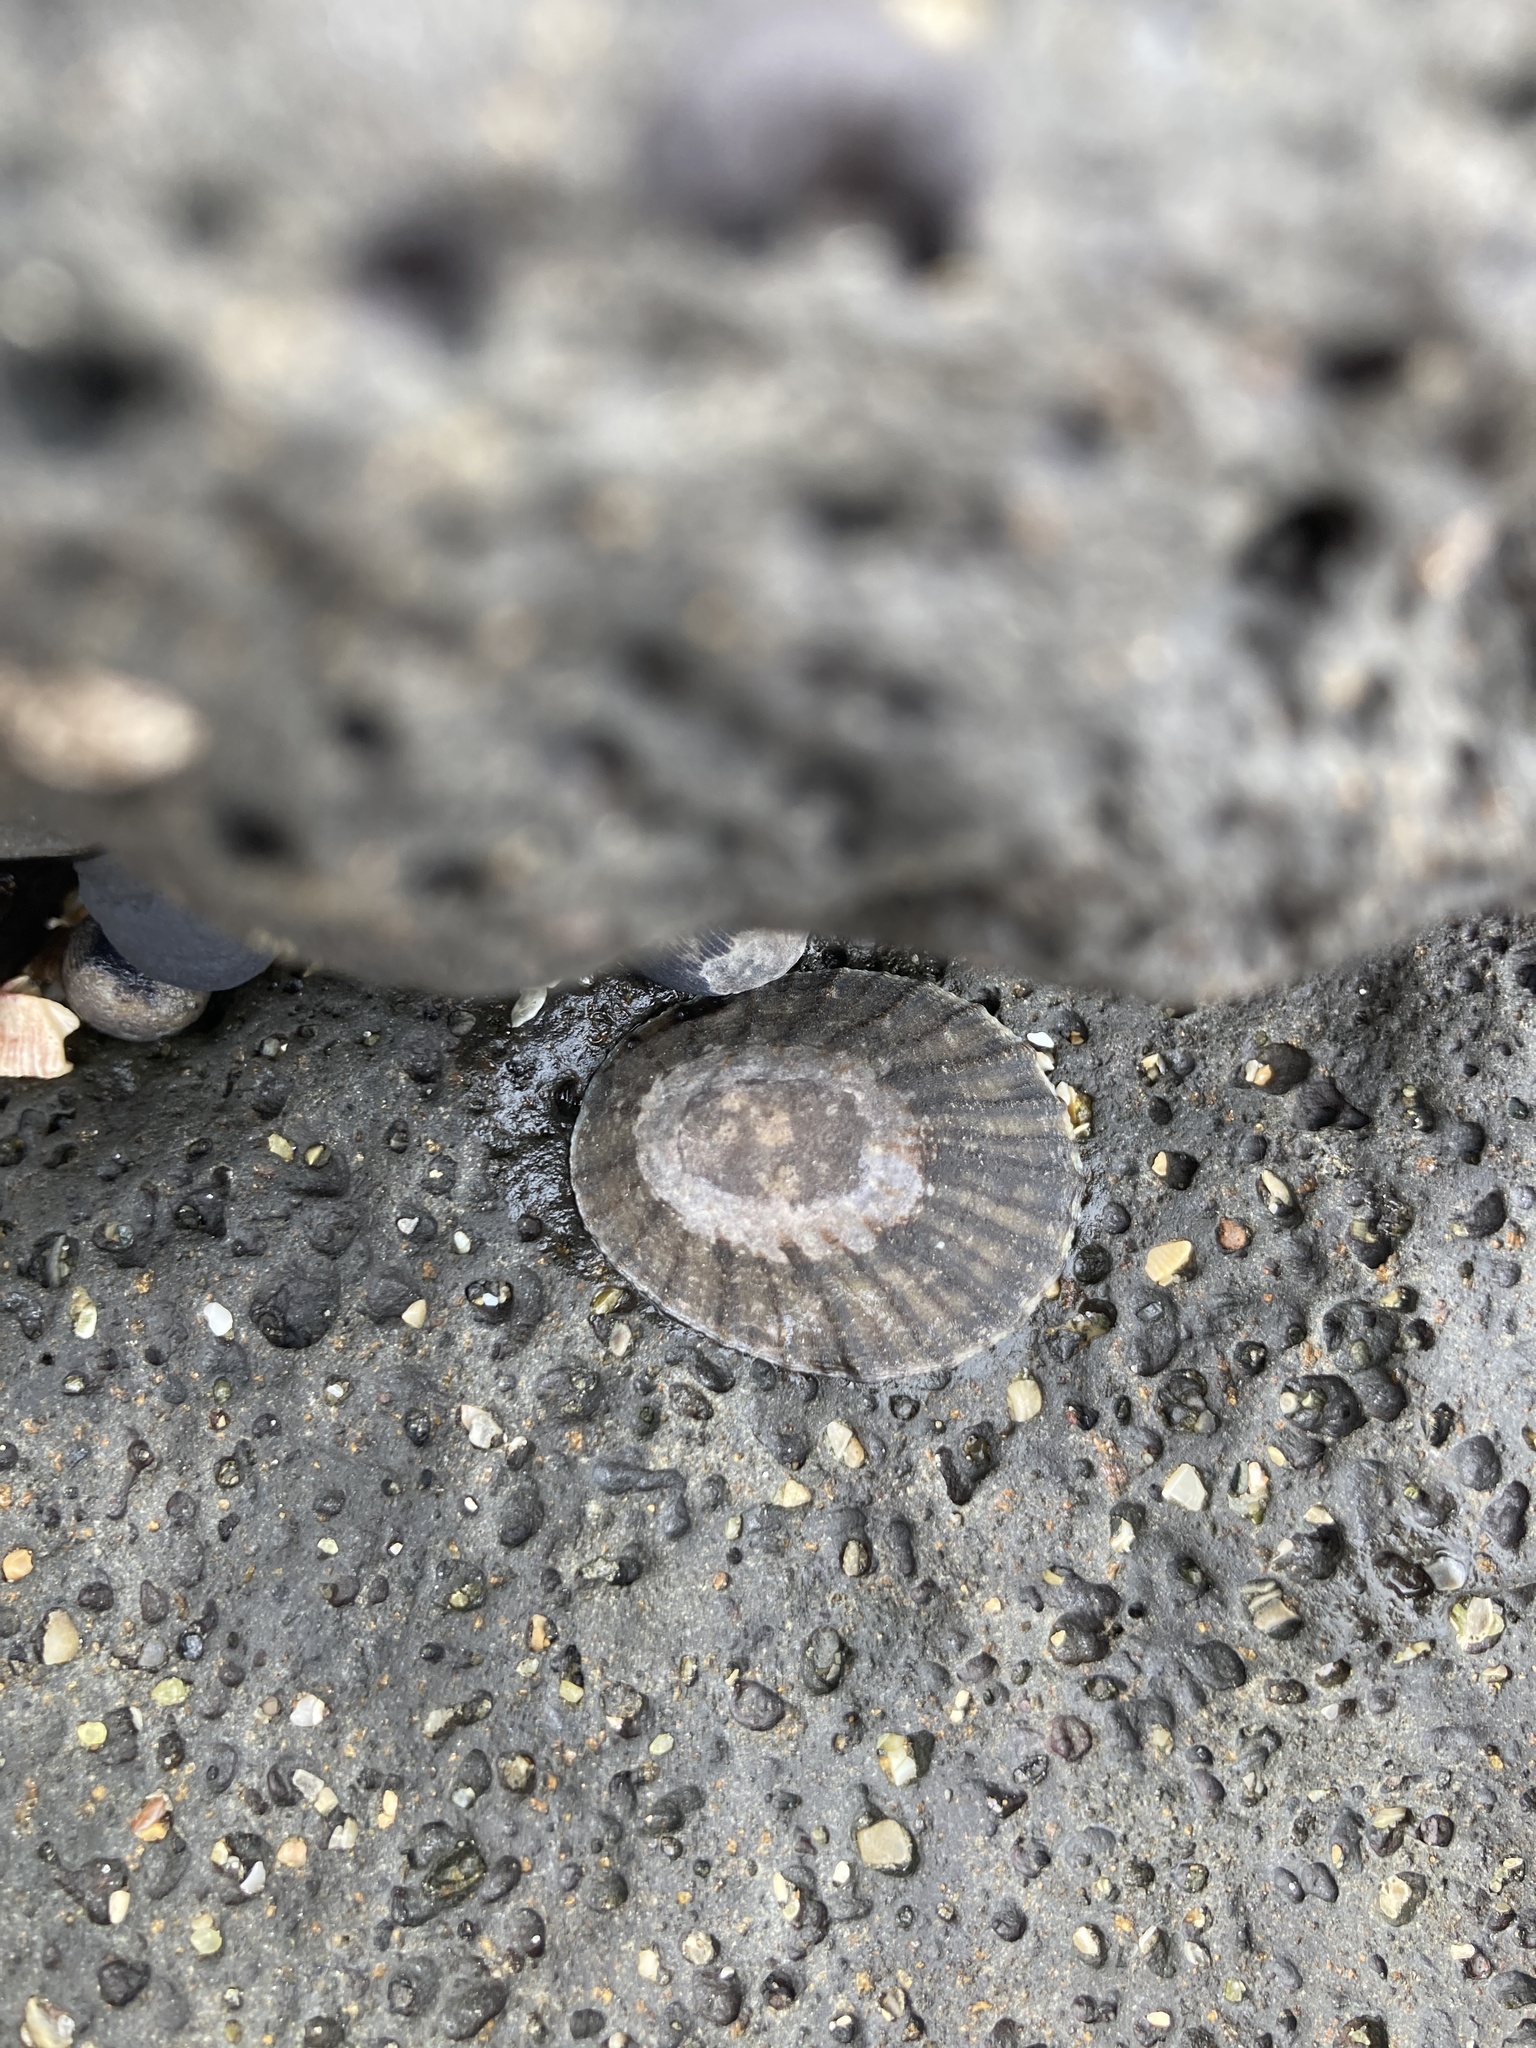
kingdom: Animalia
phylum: Mollusca
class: Gastropoda
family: Nacellidae
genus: Cellana
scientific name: Cellana radians
